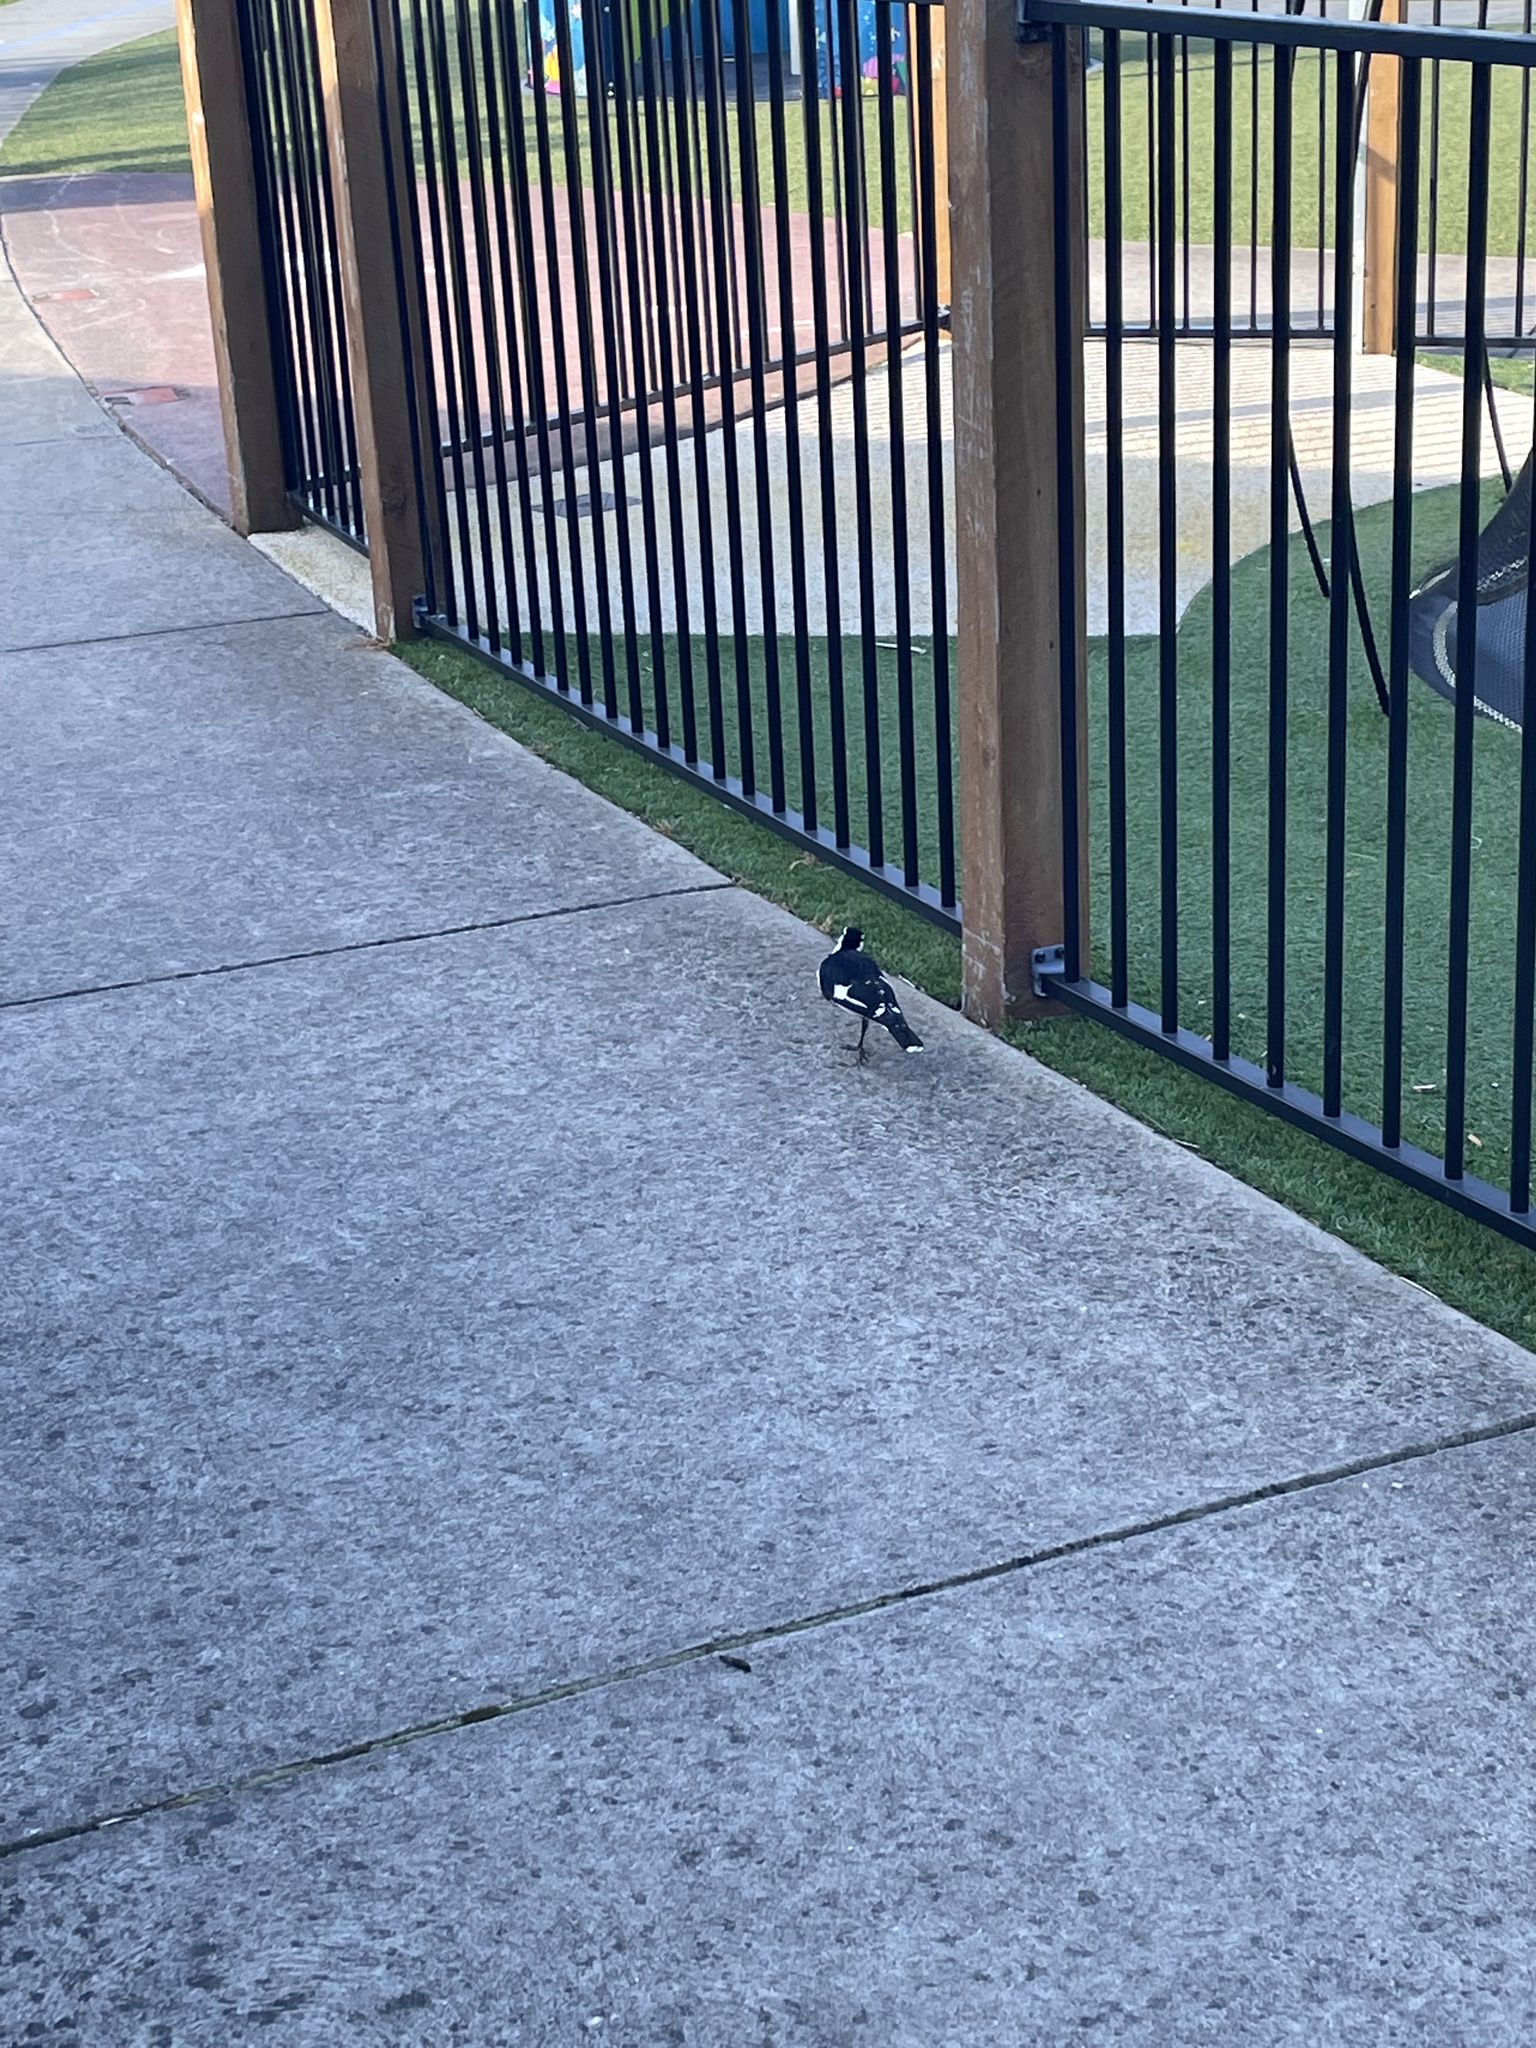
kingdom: Animalia
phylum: Chordata
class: Aves
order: Passeriformes
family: Monarchidae
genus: Grallina
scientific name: Grallina cyanoleuca
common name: Magpie-lark
